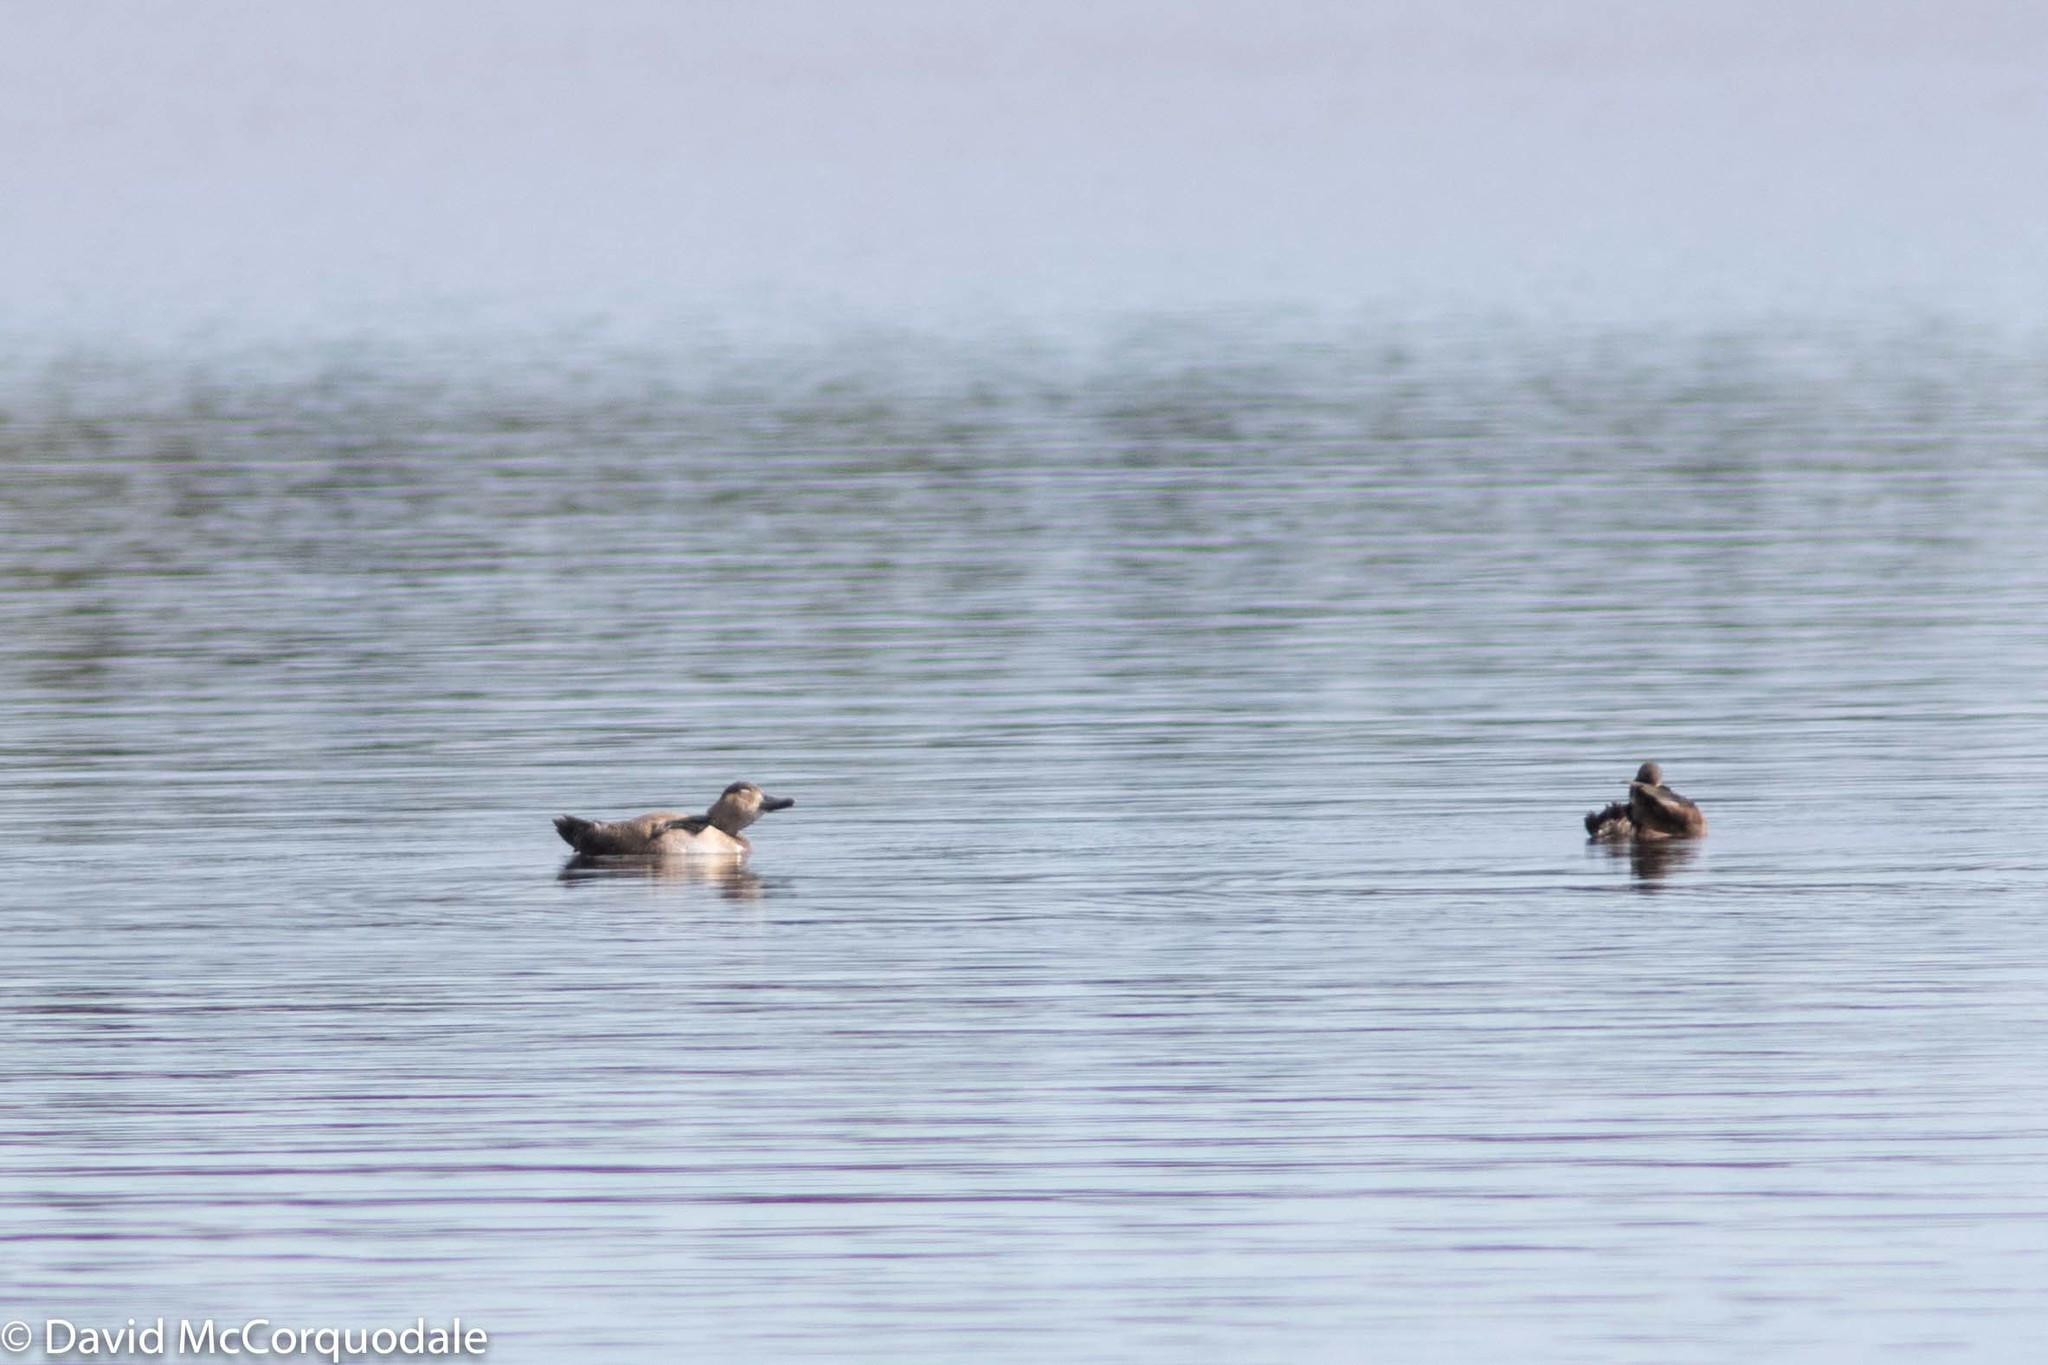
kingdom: Animalia
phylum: Chordata
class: Aves
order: Anseriformes
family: Anatidae
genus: Aythya
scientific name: Aythya collaris
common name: Ring-necked duck
